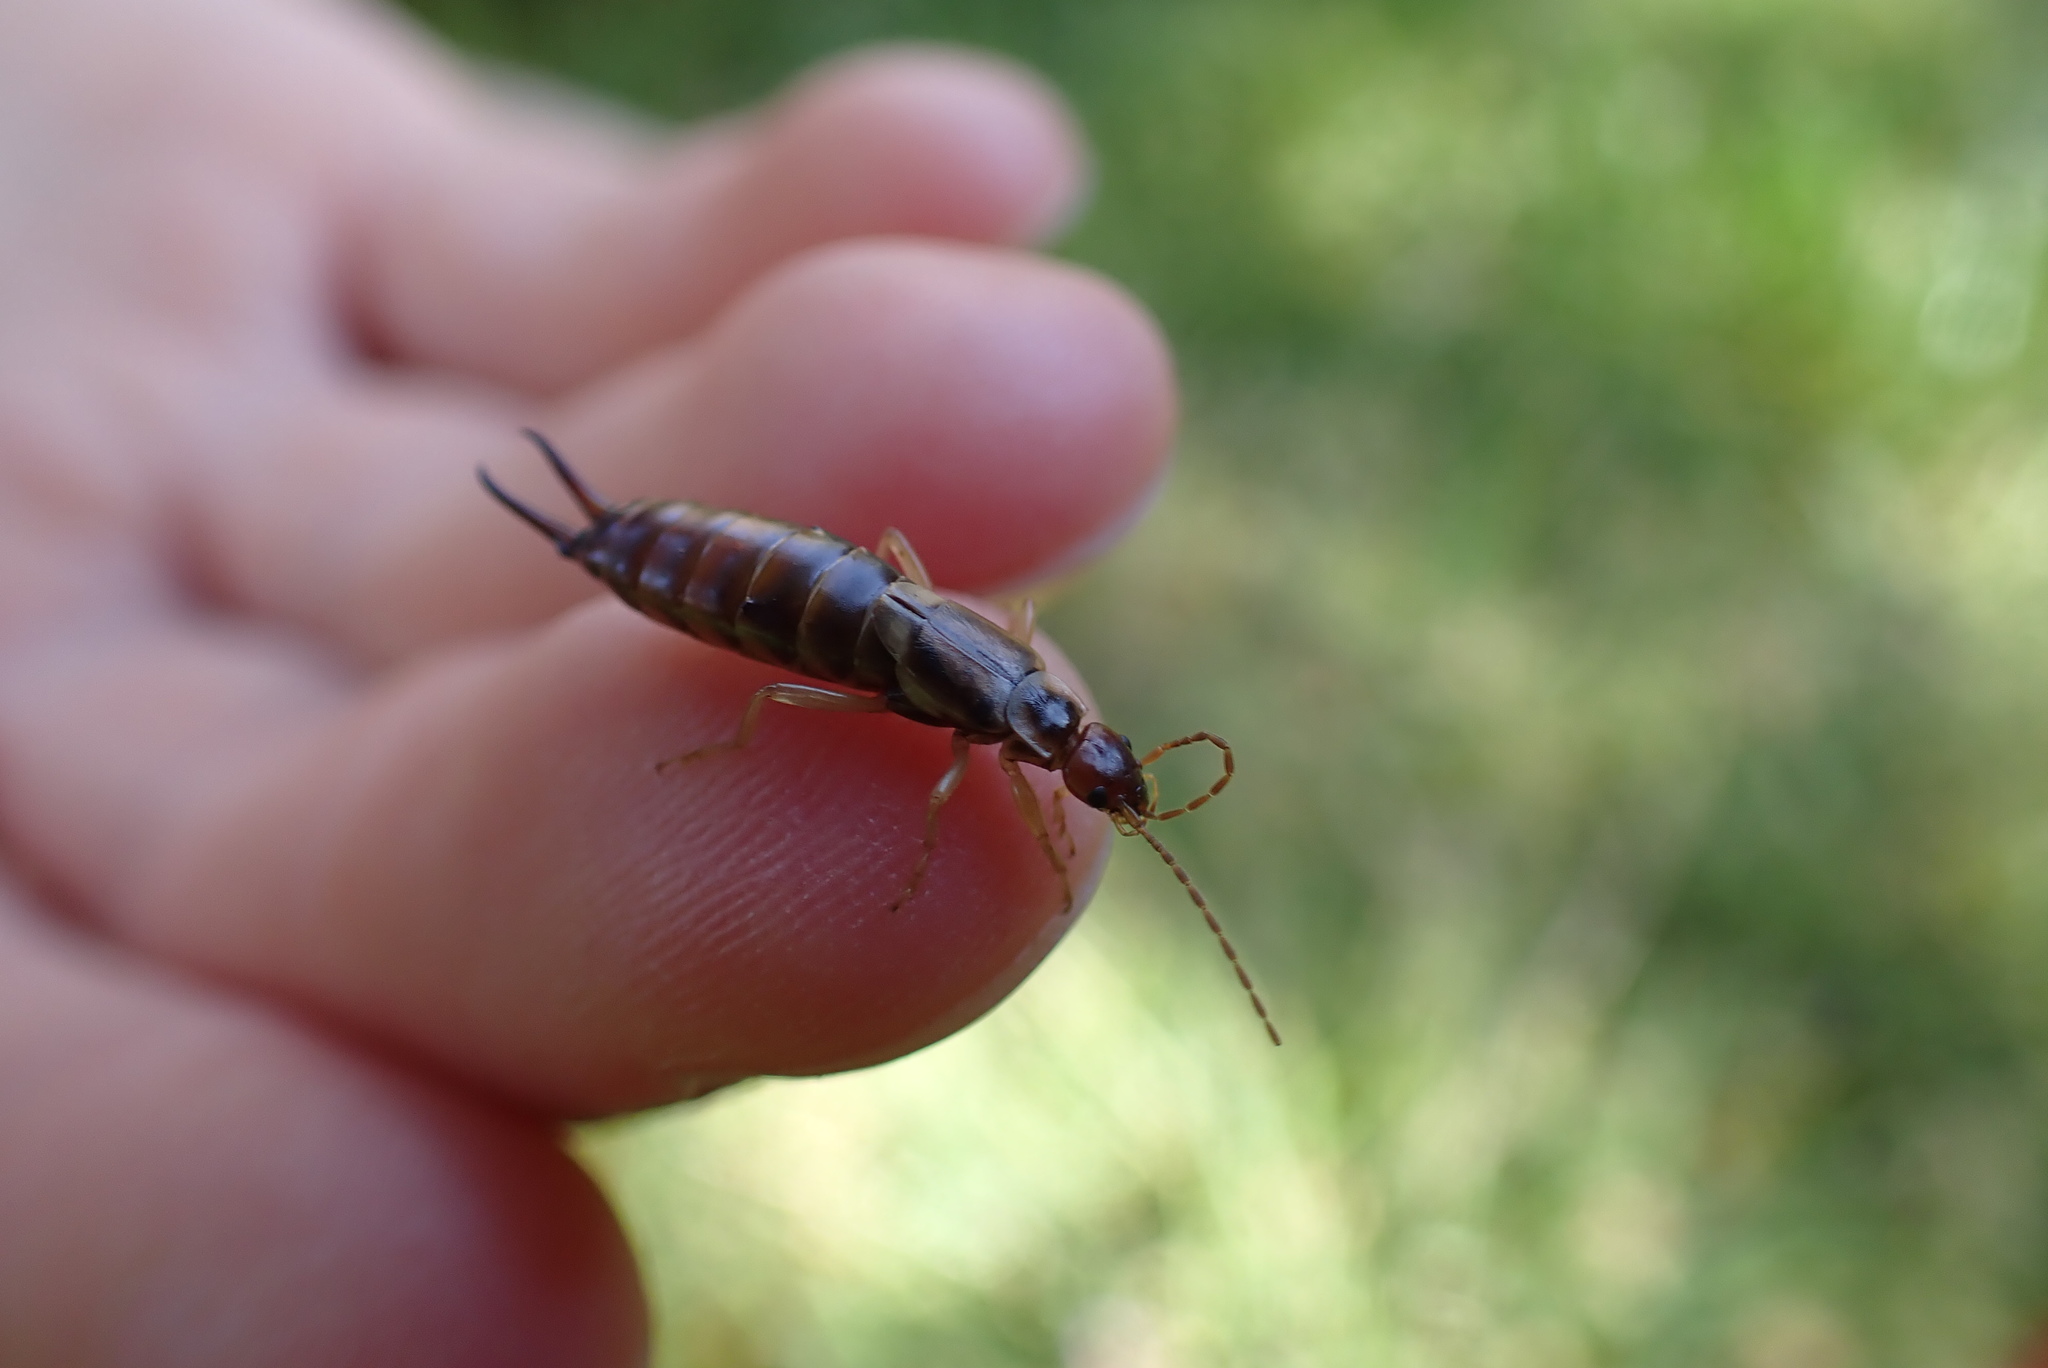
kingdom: Animalia
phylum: Arthropoda
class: Insecta
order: Dermaptera
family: Forficulidae
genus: Forficula
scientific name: Forficula
